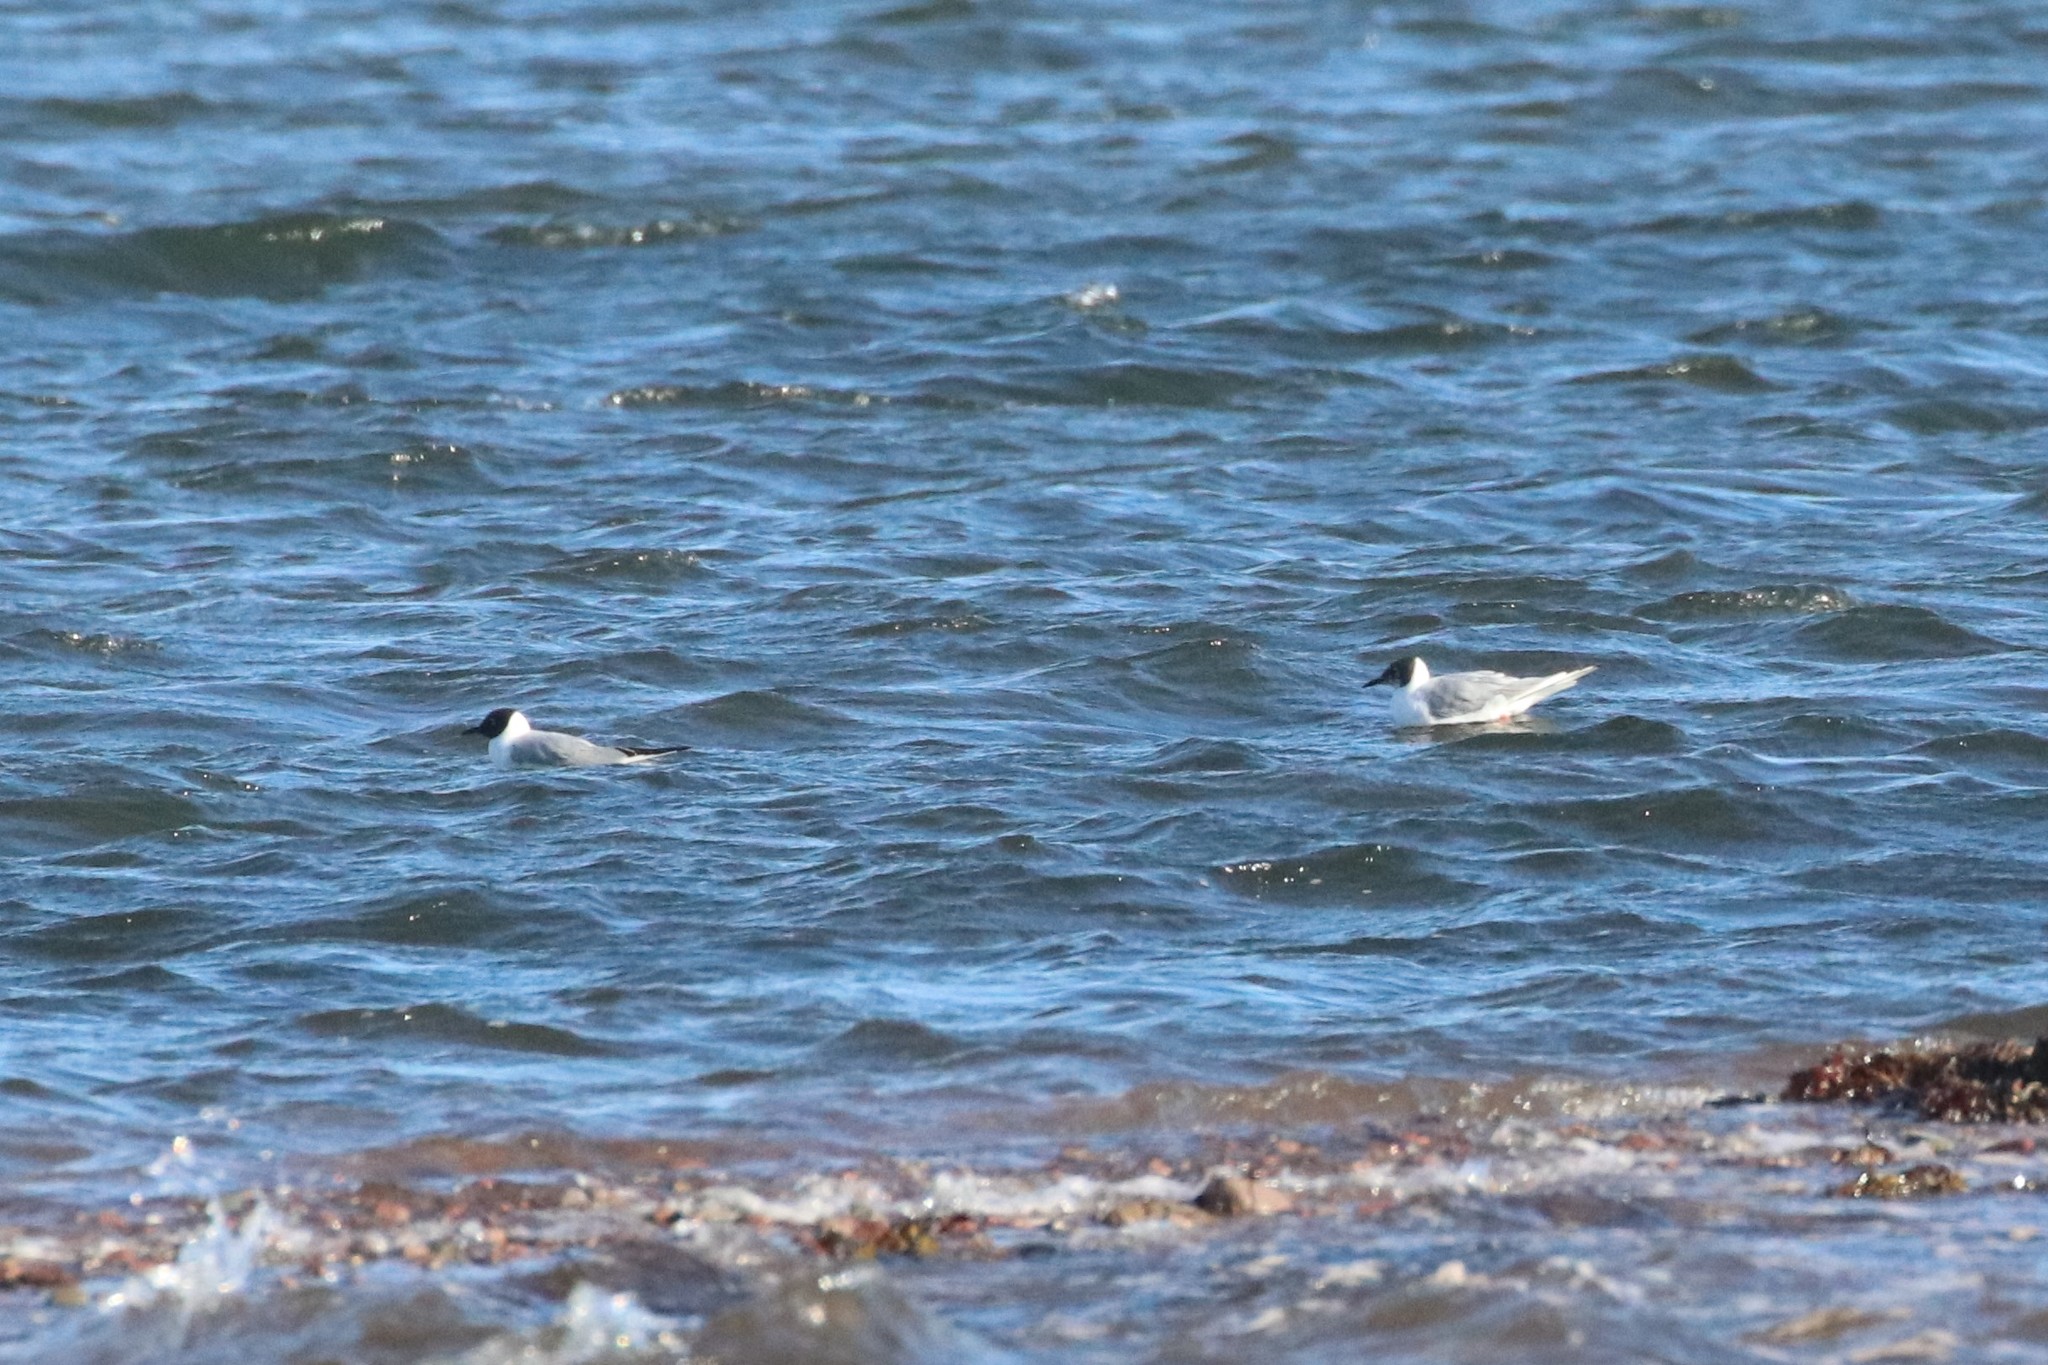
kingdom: Animalia
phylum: Chordata
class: Aves
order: Charadriiformes
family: Laridae
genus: Chroicocephalus
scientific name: Chroicocephalus philadelphia
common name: Bonaparte's gull
